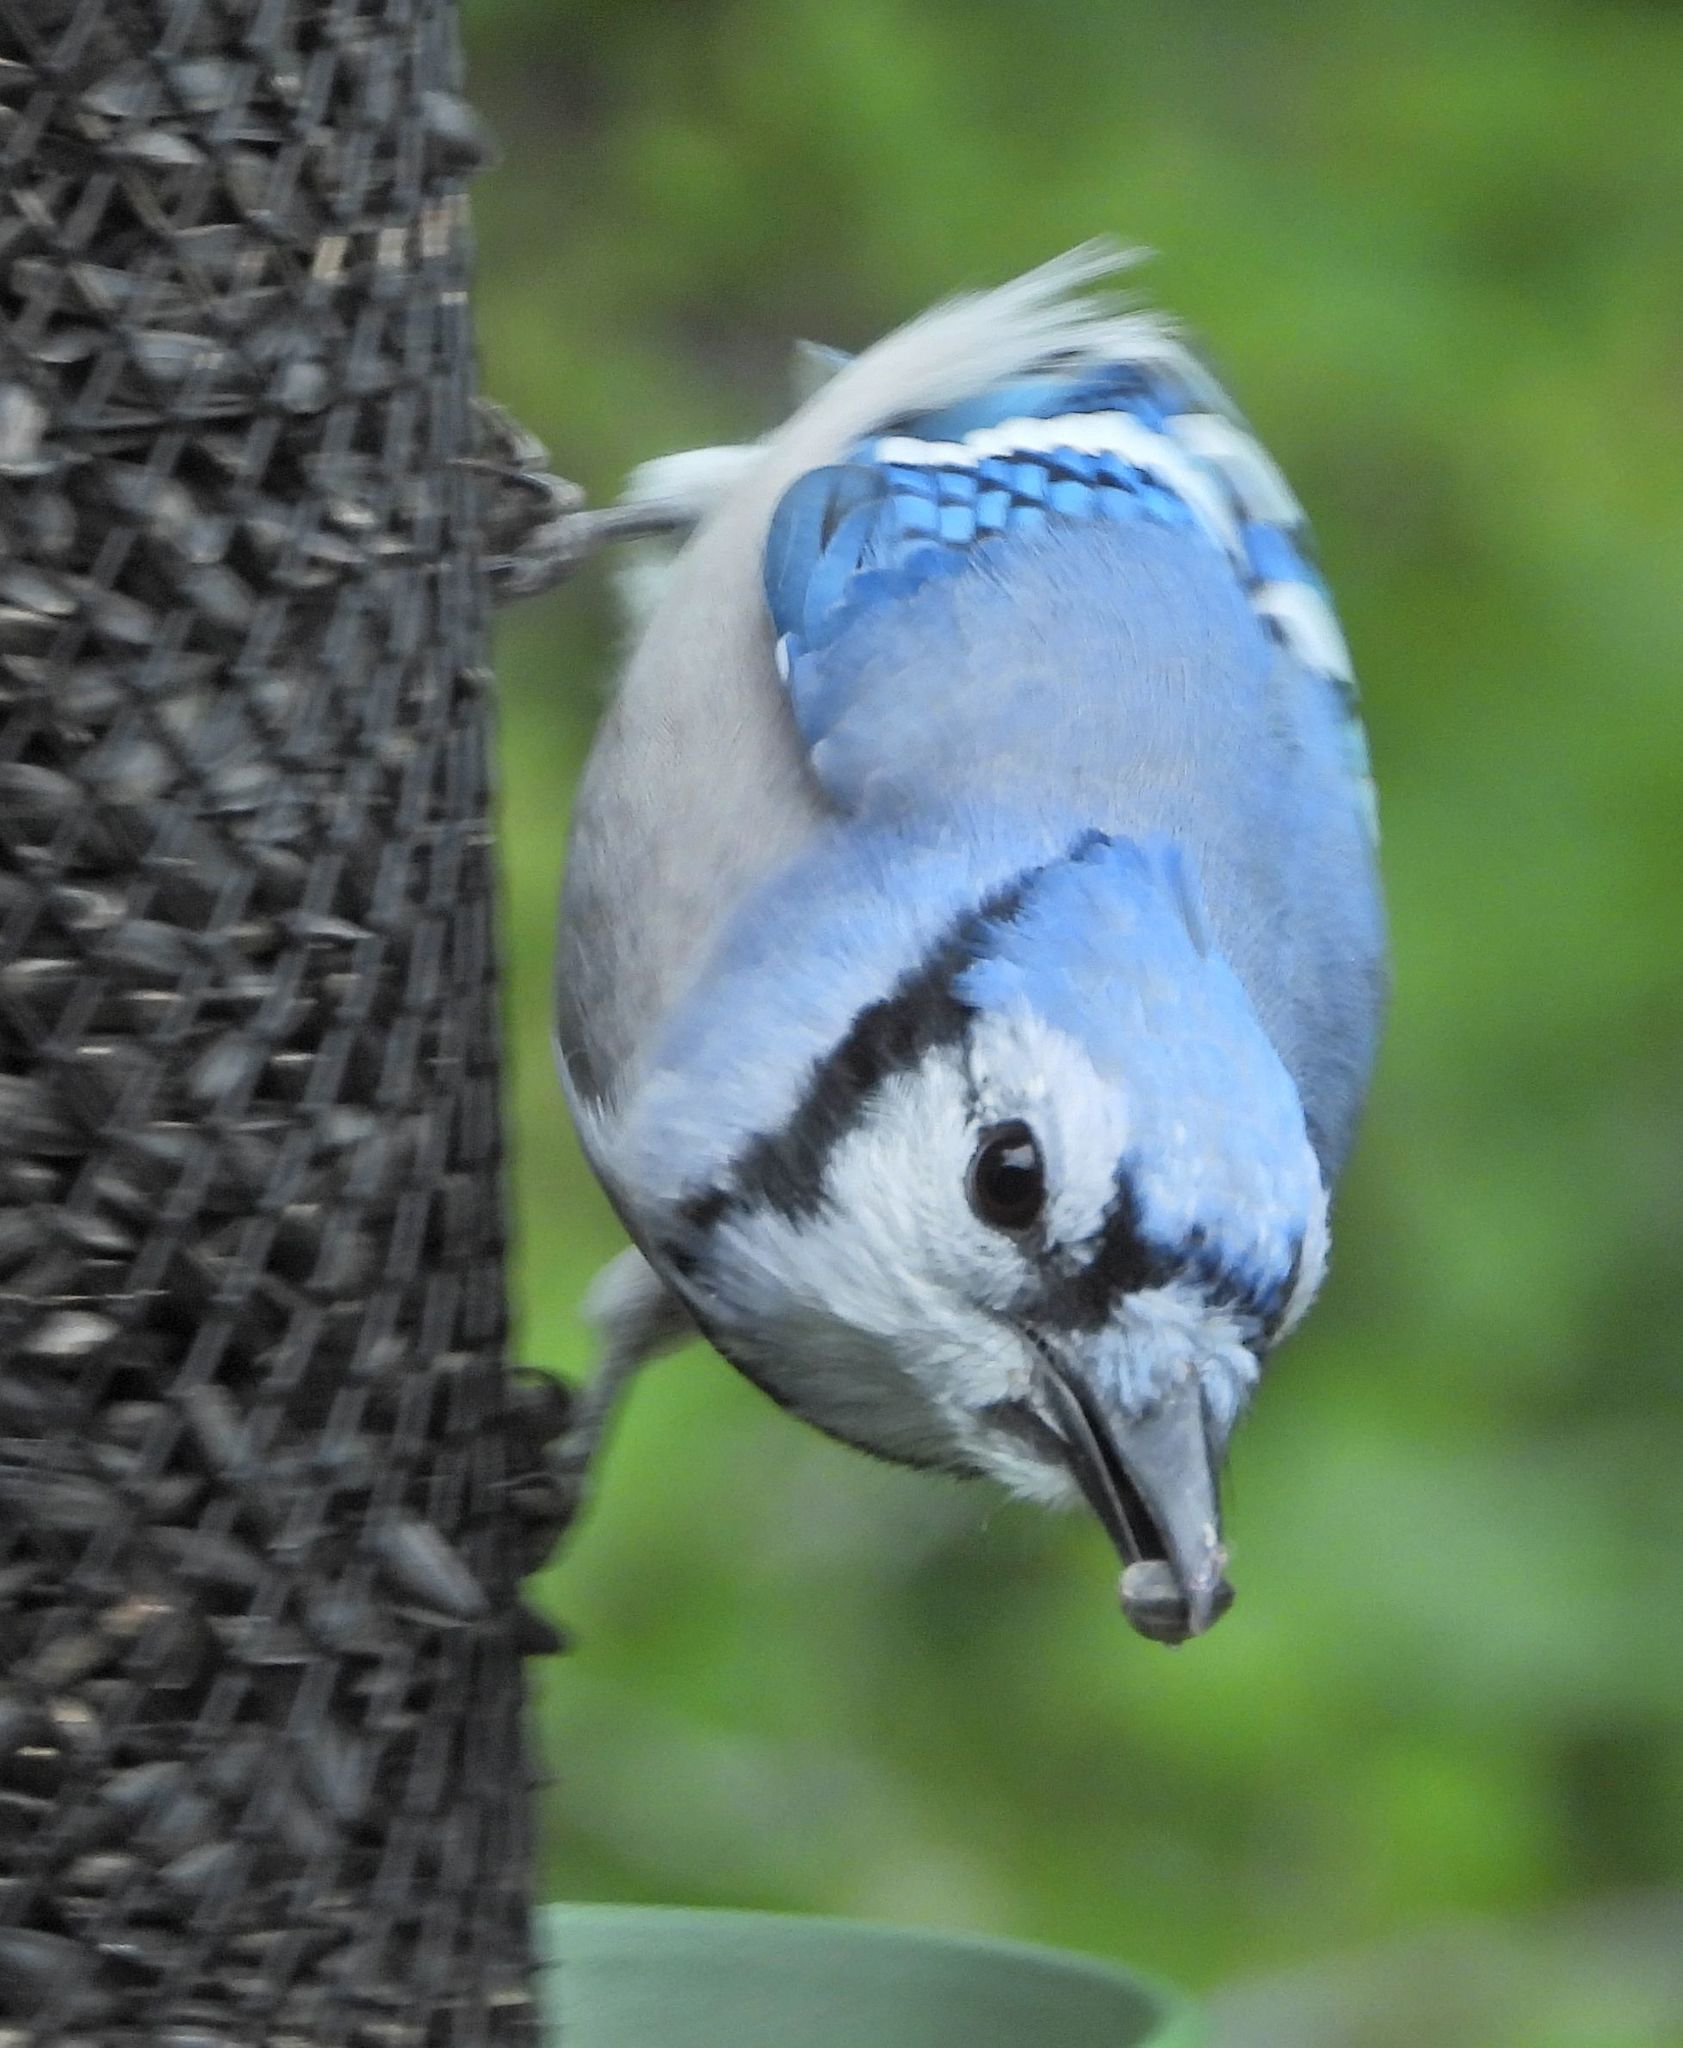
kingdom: Animalia
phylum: Chordata
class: Aves
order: Passeriformes
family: Corvidae
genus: Cyanocitta
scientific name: Cyanocitta cristata
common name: Blue jay
